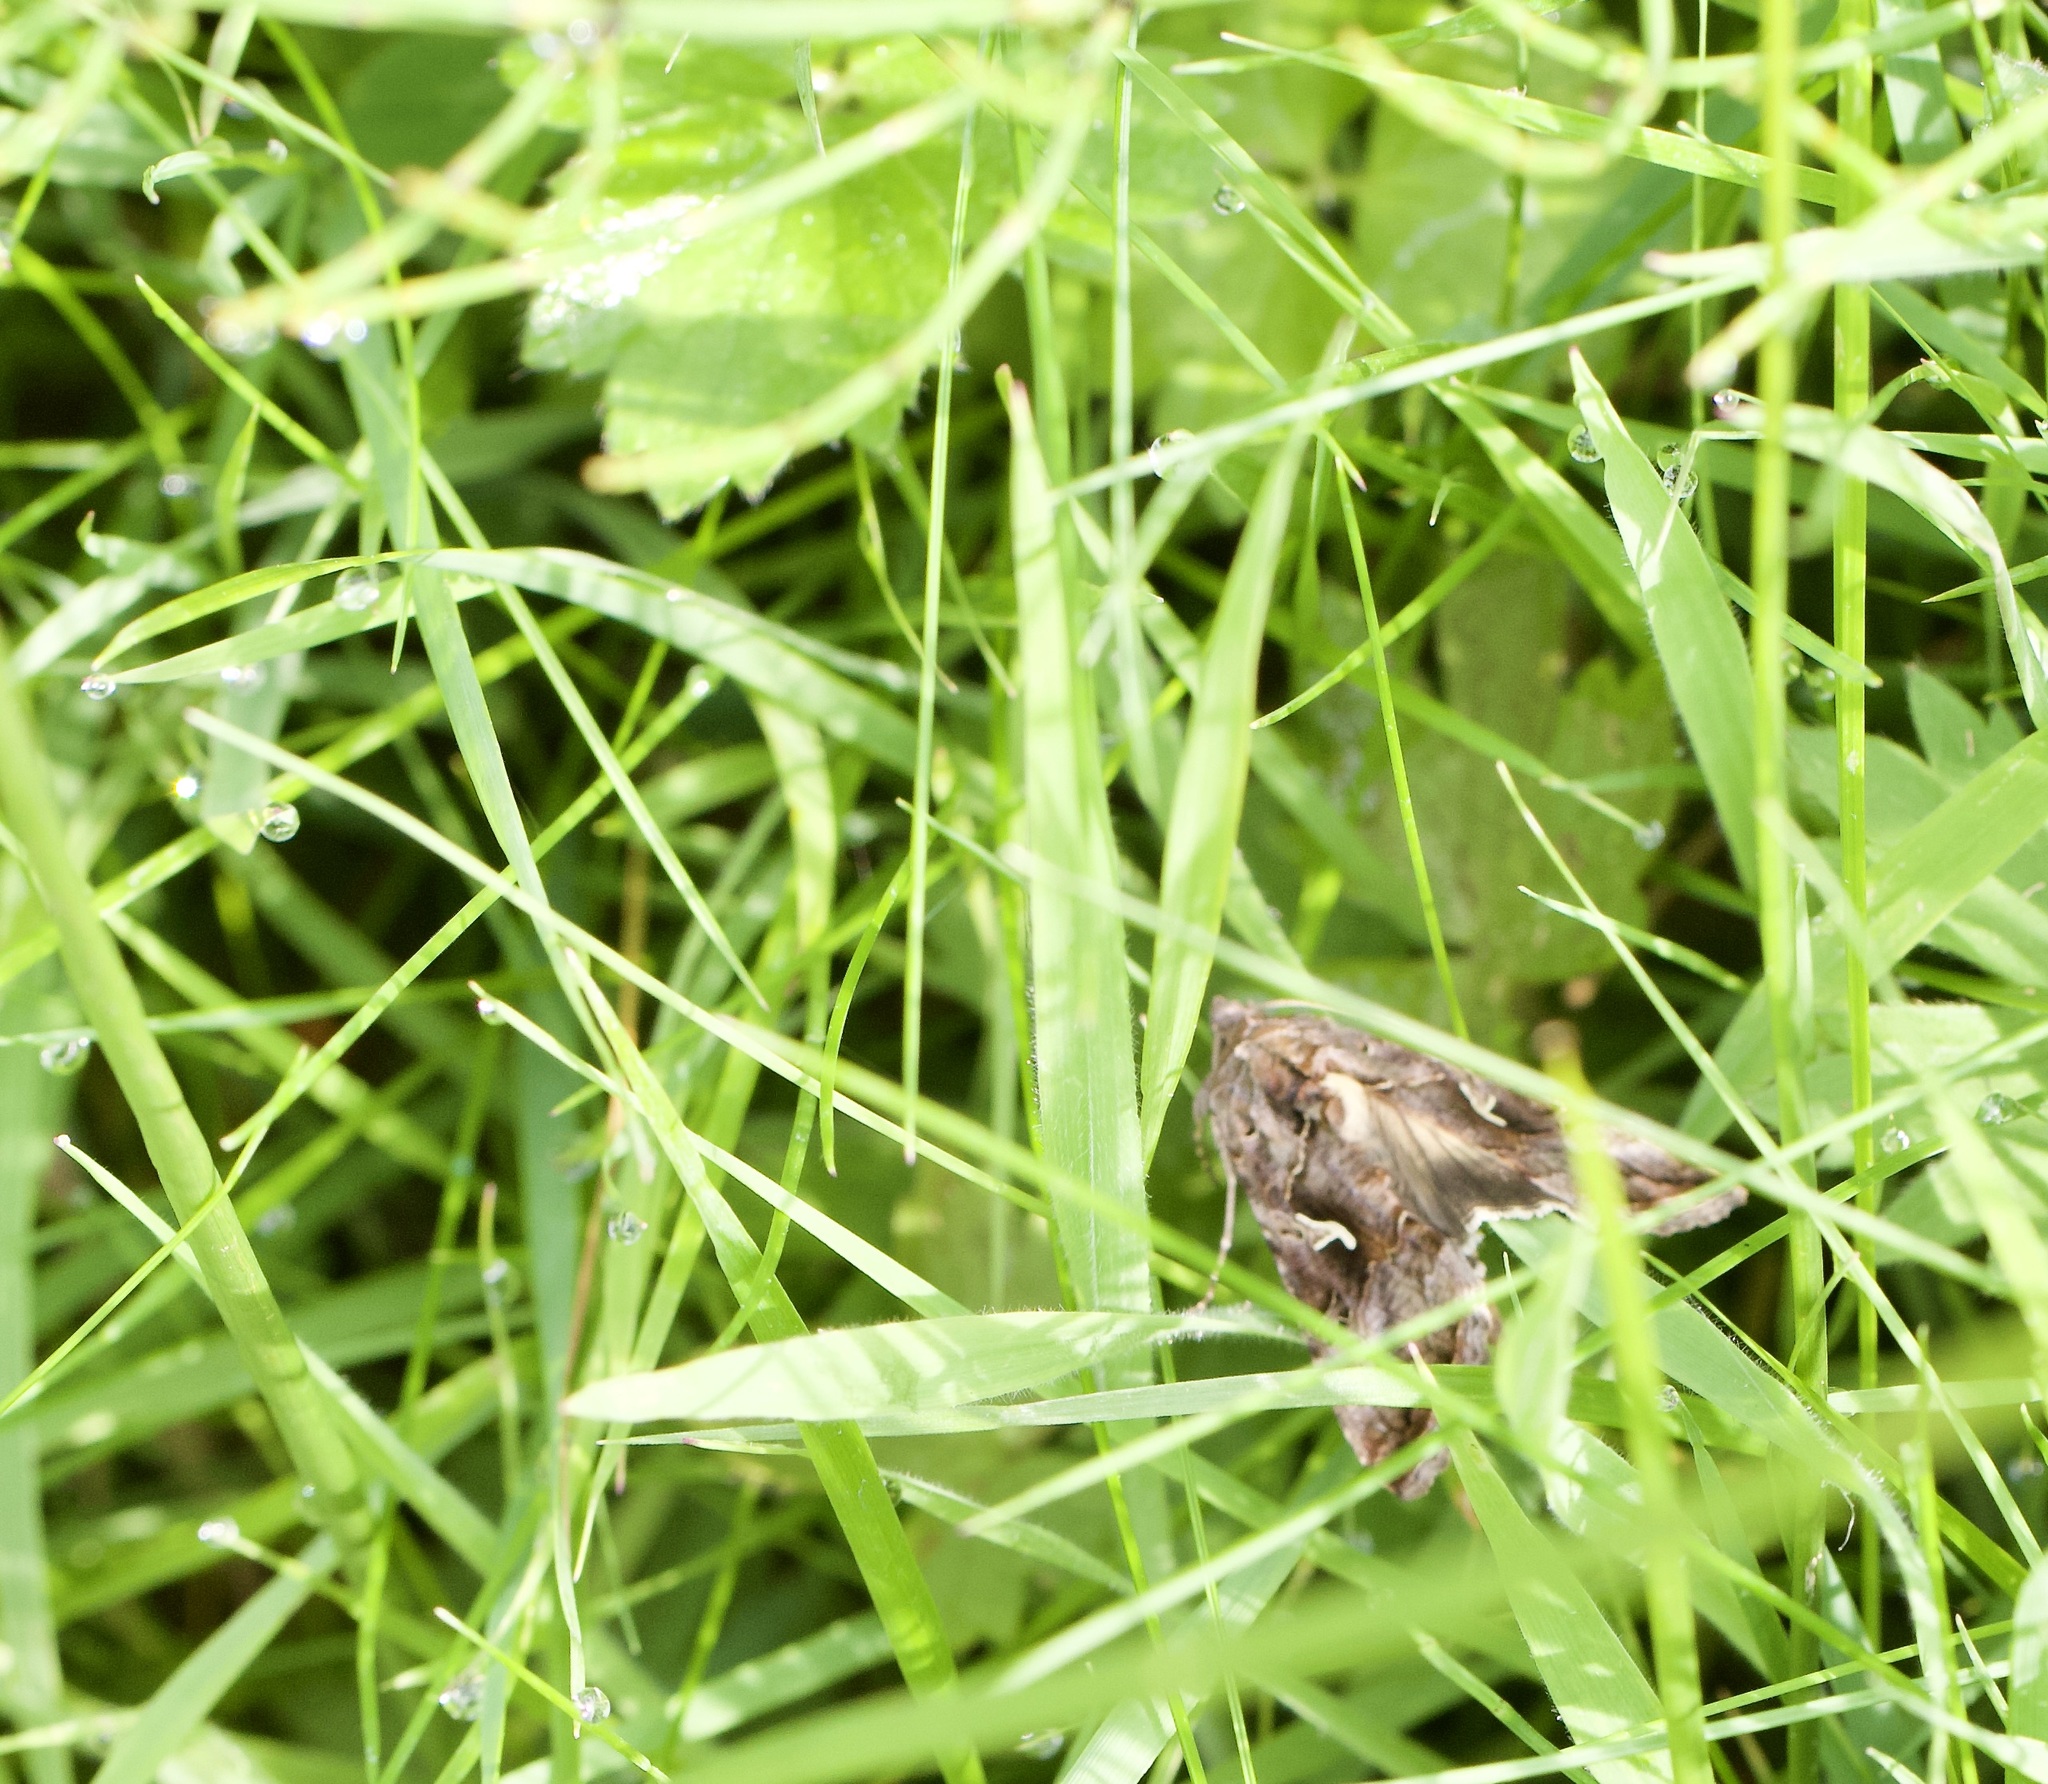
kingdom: Animalia
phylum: Arthropoda
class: Insecta
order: Lepidoptera
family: Noctuidae
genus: Autographa
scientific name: Autographa gamma
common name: Silver y
